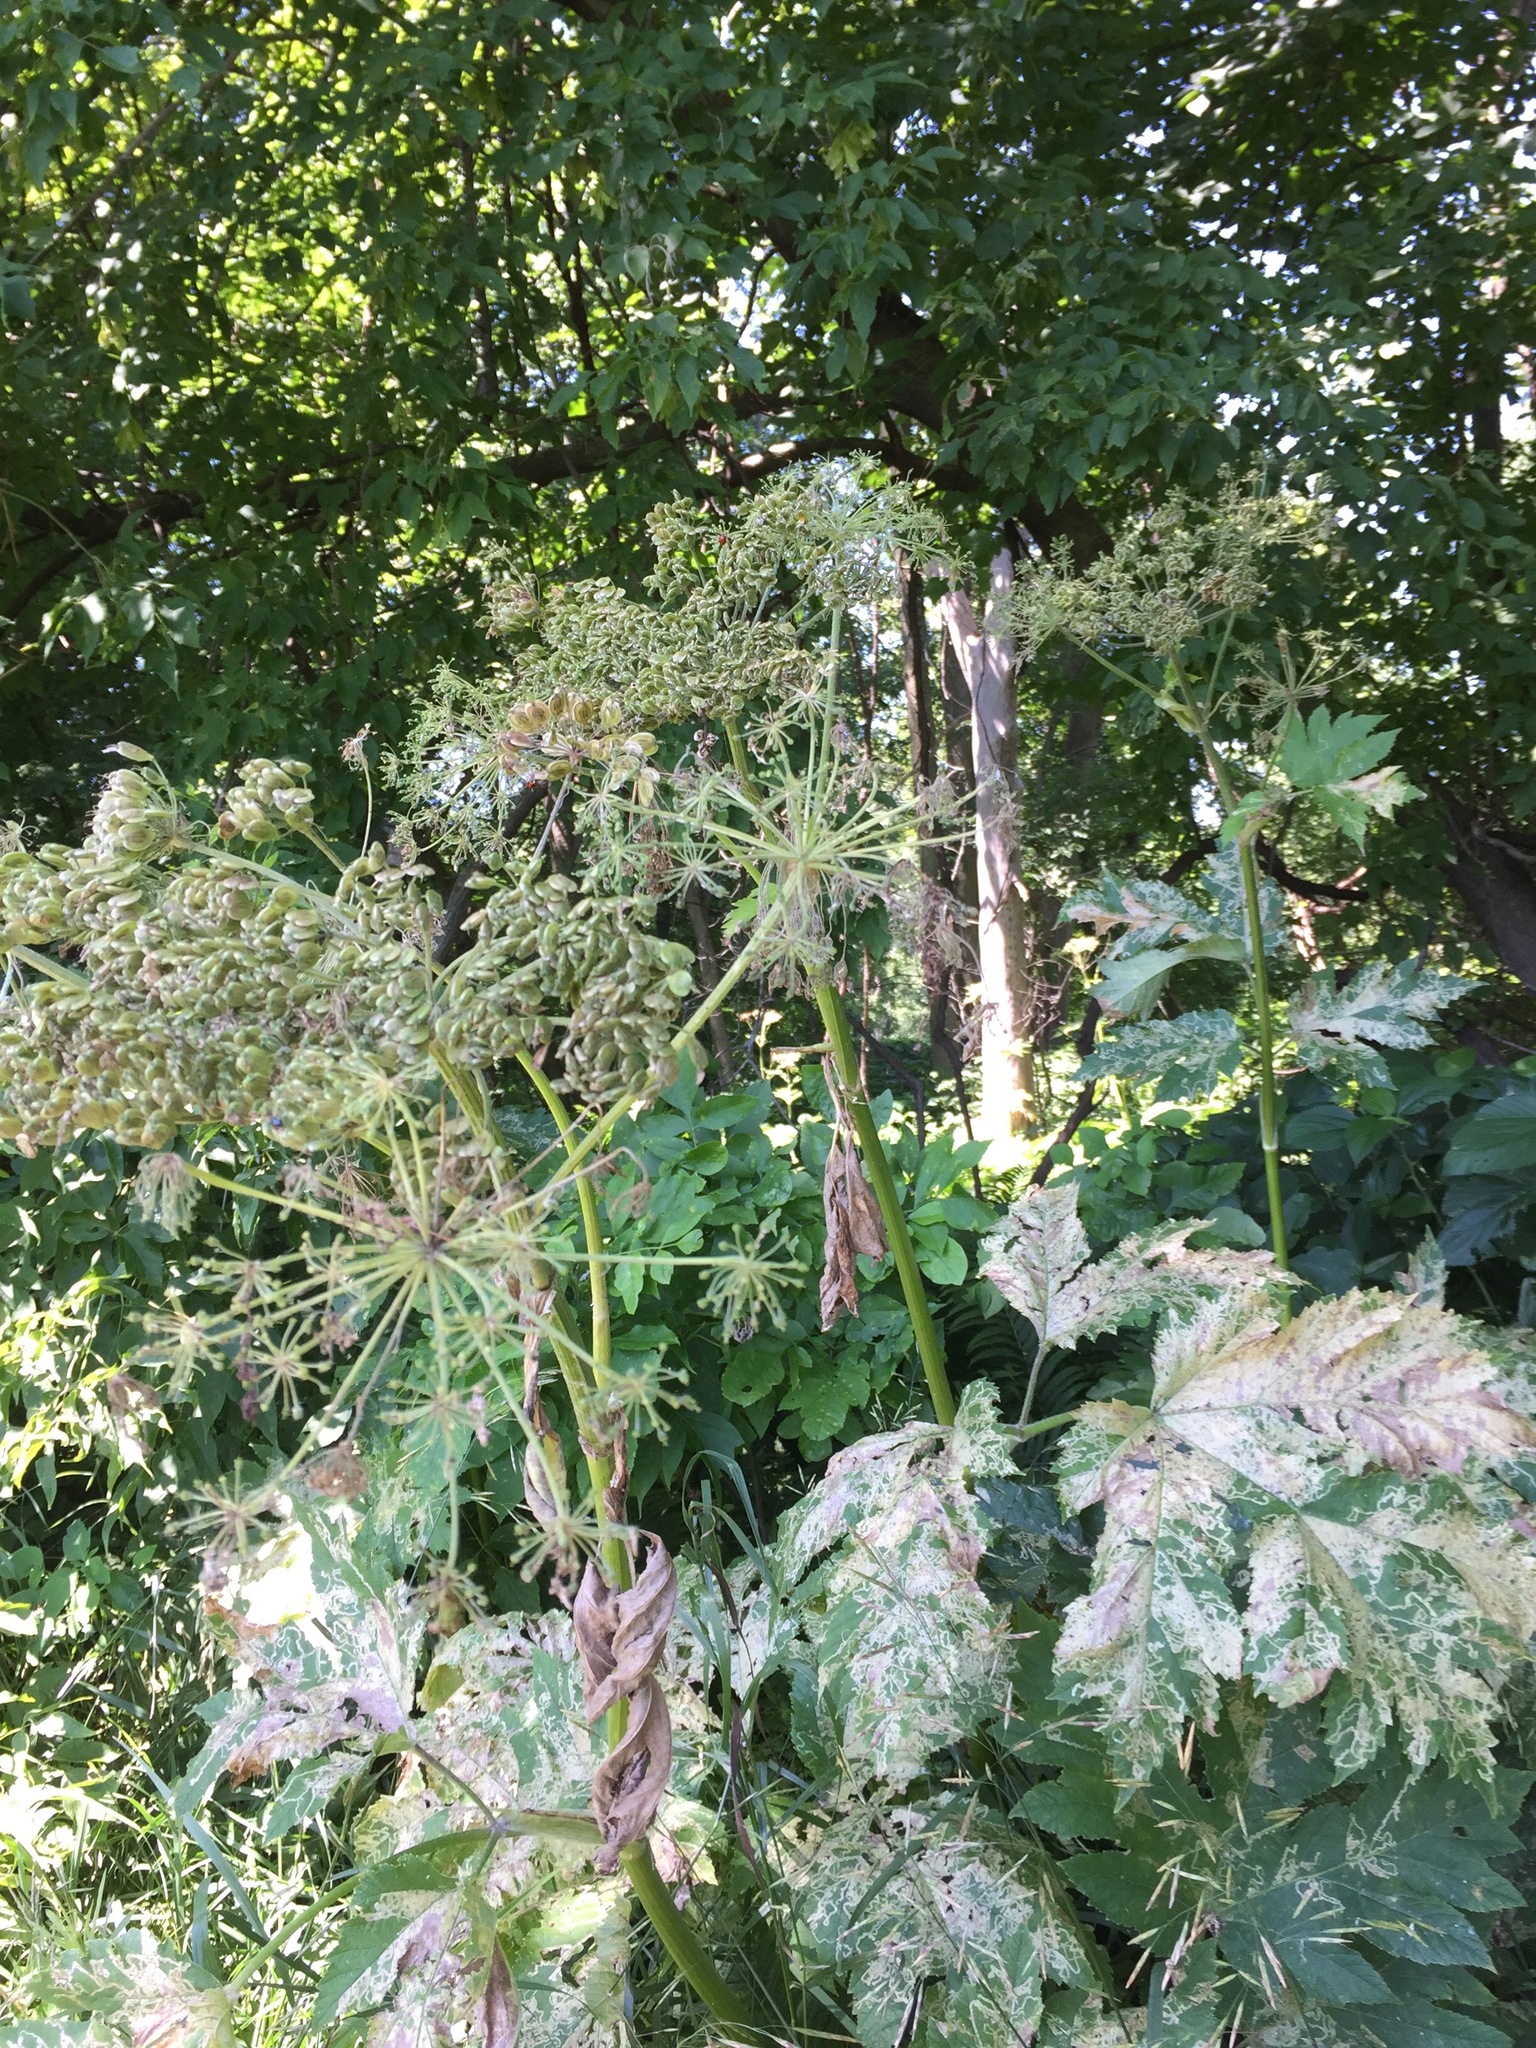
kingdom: Plantae
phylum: Tracheophyta
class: Magnoliopsida
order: Apiales
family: Apiaceae
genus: Heracleum
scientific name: Heracleum maximum
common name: American cow parsnip
